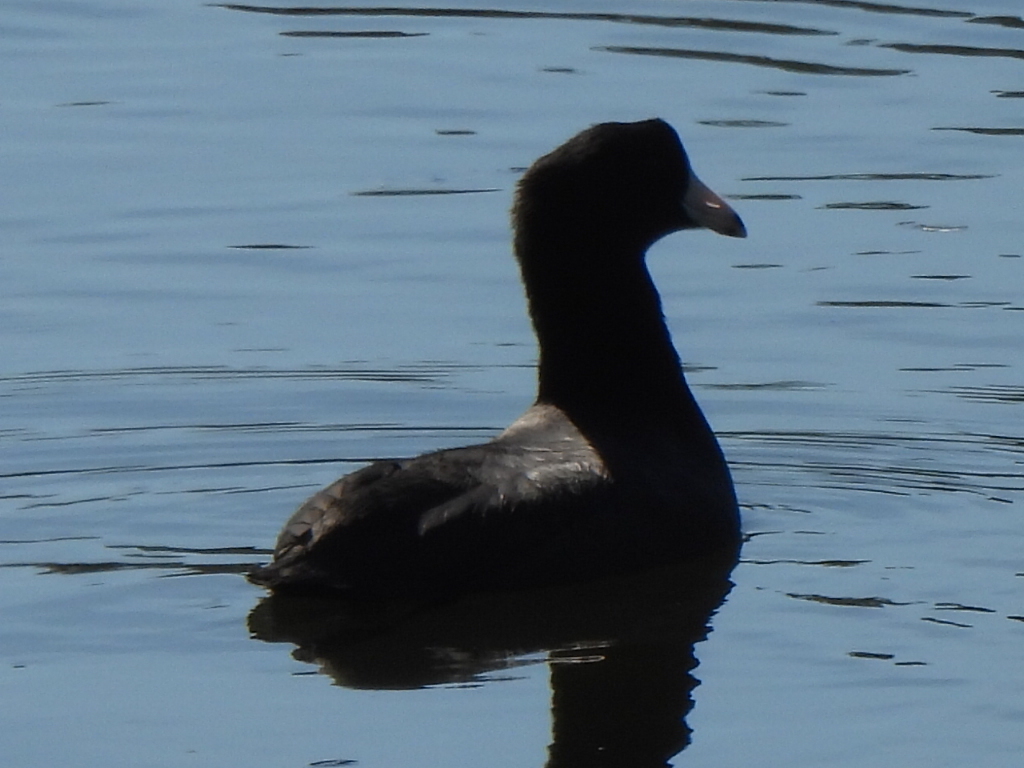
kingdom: Animalia
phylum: Chordata
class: Aves
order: Gruiformes
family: Rallidae
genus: Fulica
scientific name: Fulica americana
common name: American coot
